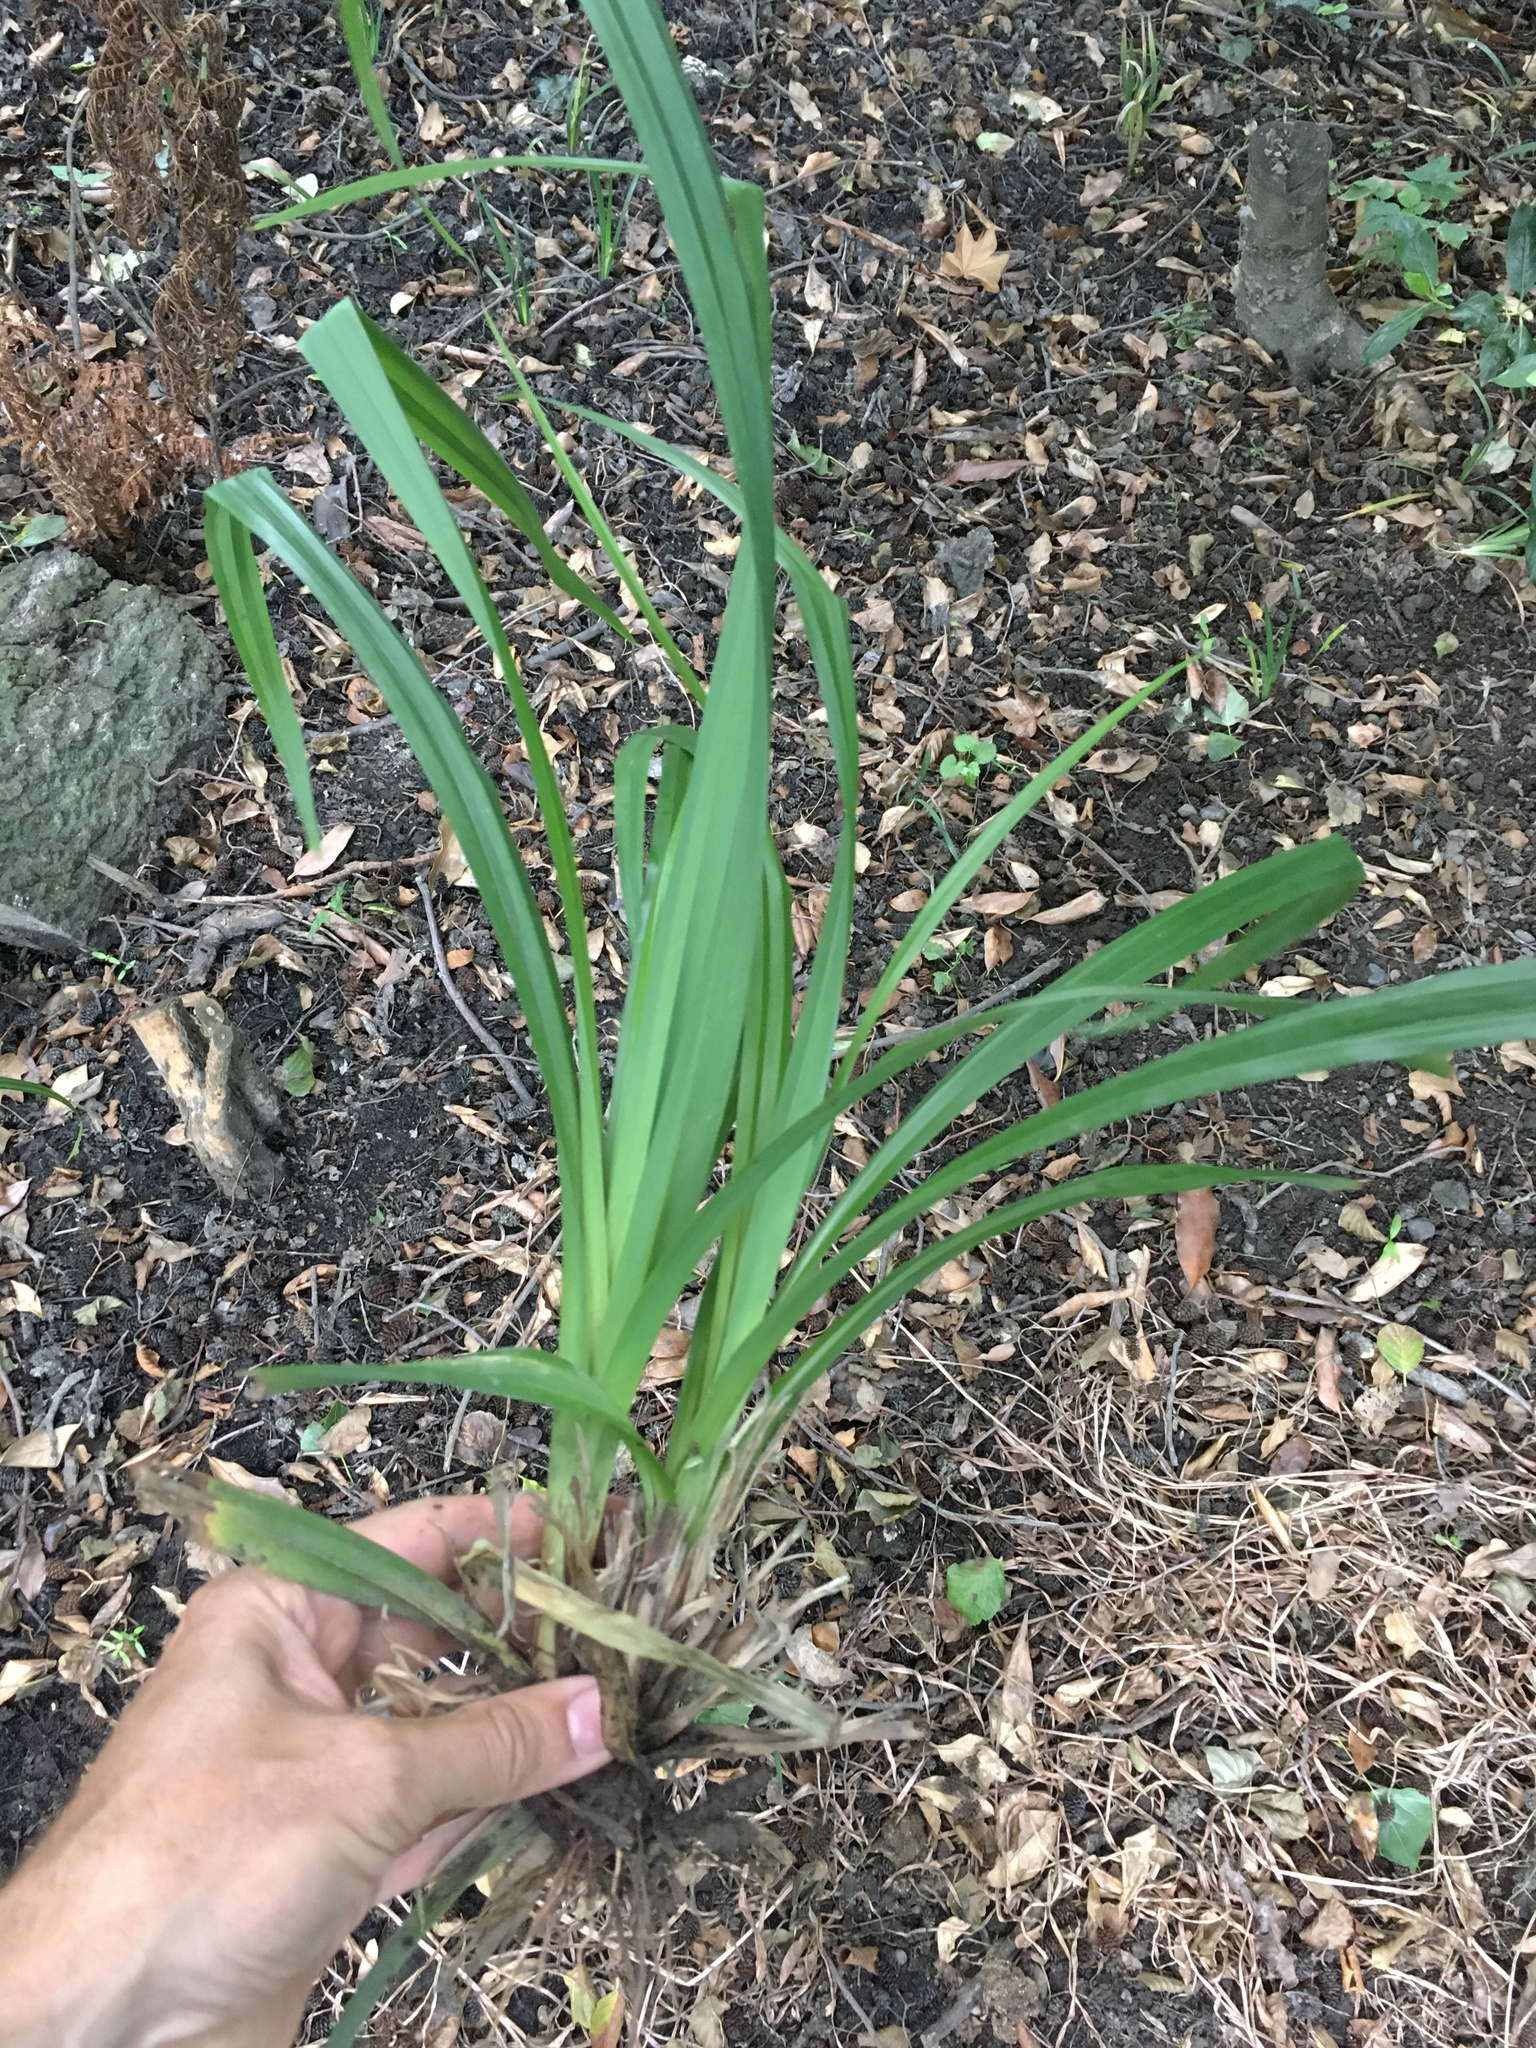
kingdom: Plantae
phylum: Tracheophyta
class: Liliopsida
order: Poales
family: Cyperaceae
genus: Carex
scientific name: Carex pendula
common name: Pendulous sedge
